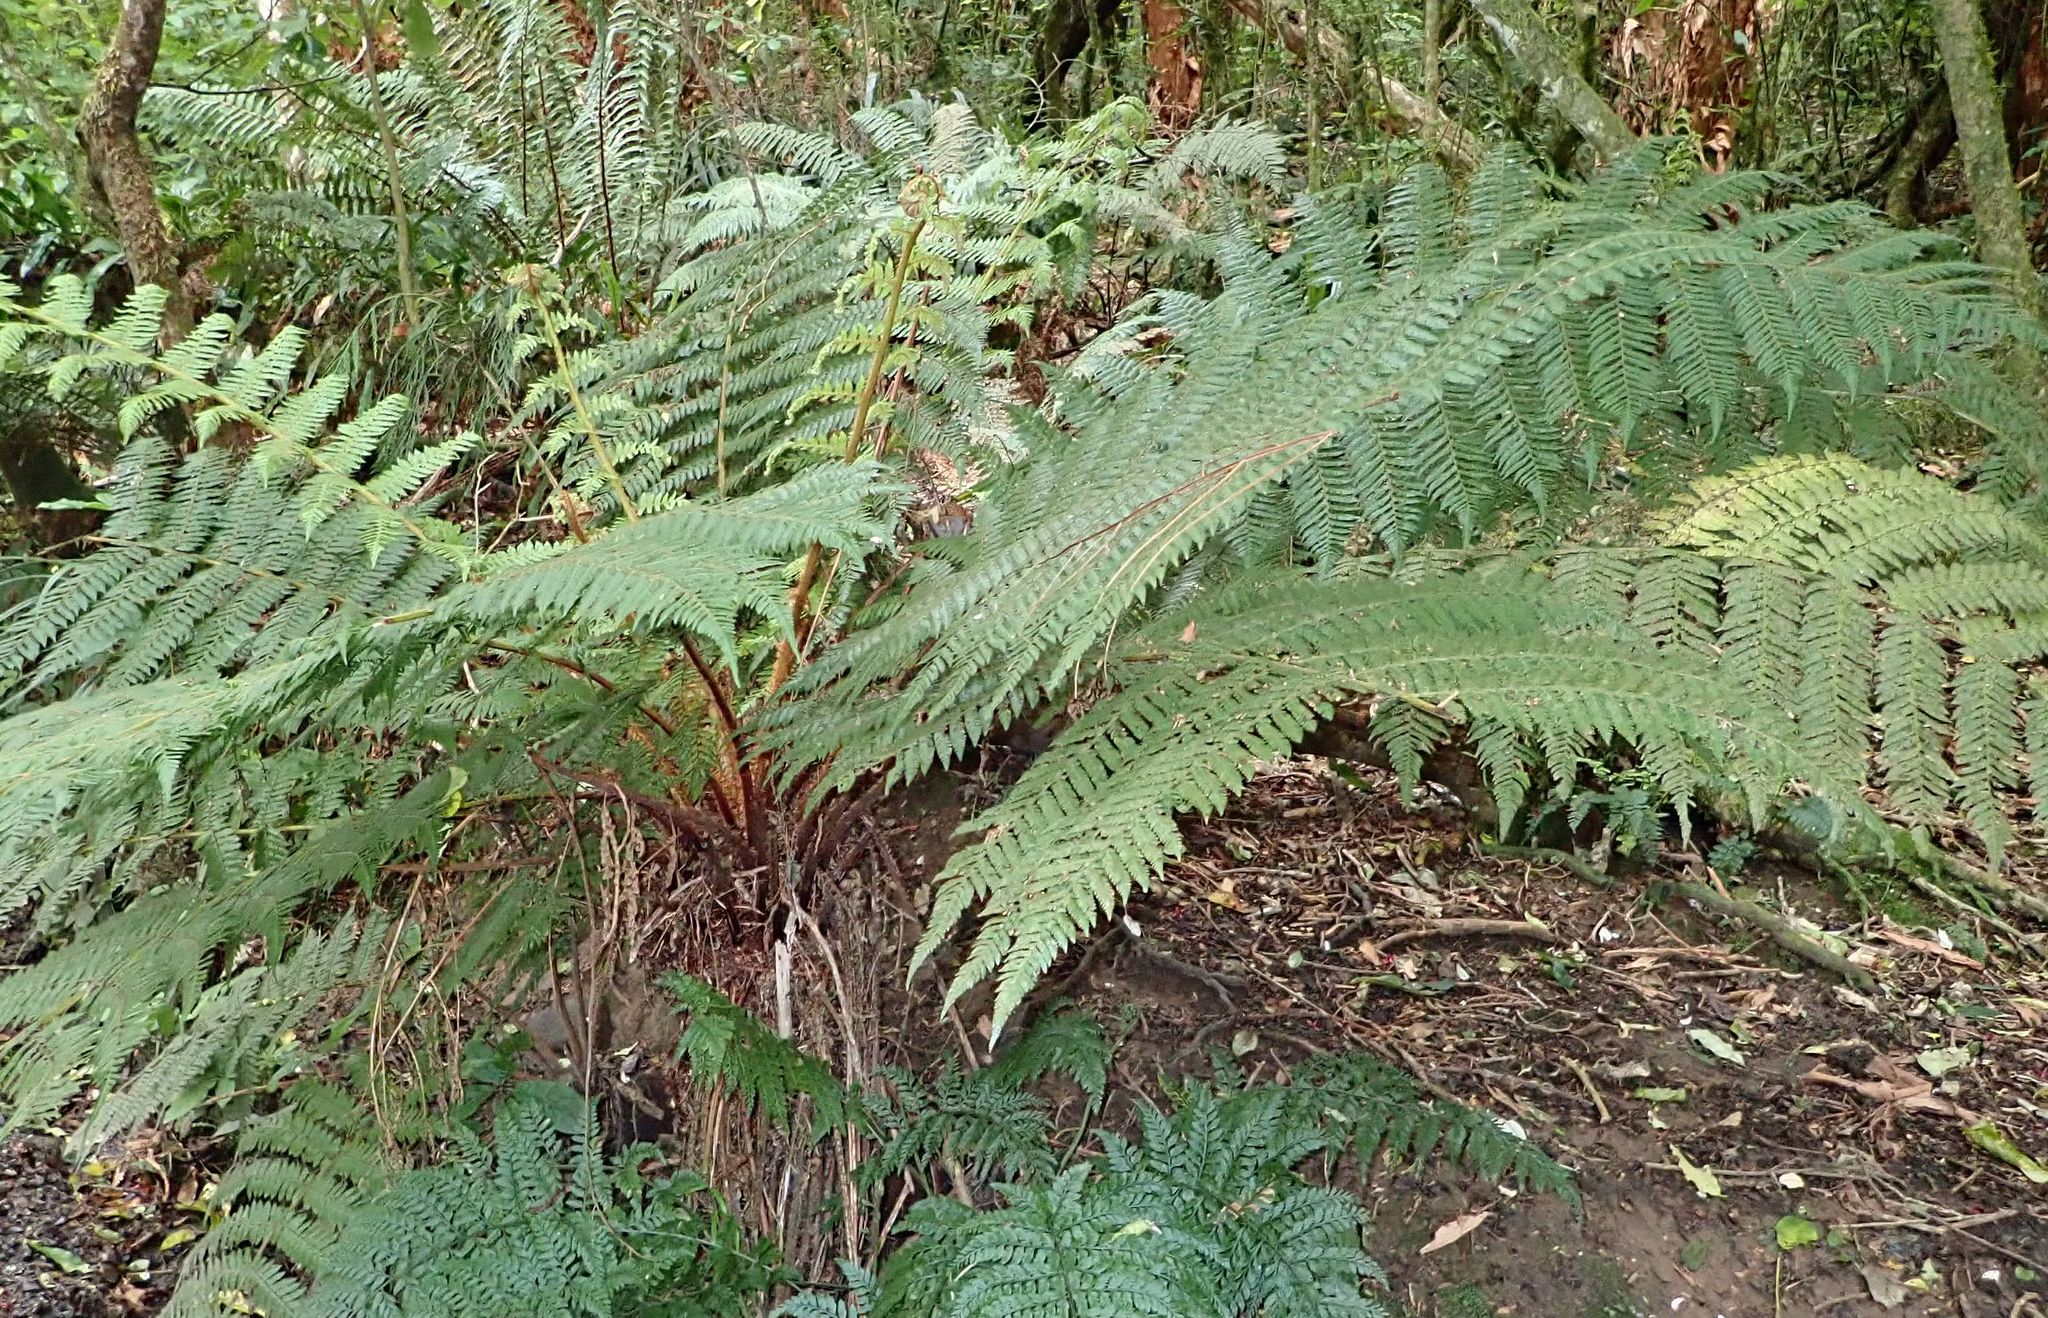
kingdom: Plantae
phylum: Tracheophyta
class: Polypodiopsida
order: Cyatheales
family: Cyatheaceae
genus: Alsophila
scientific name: Alsophila smithii
